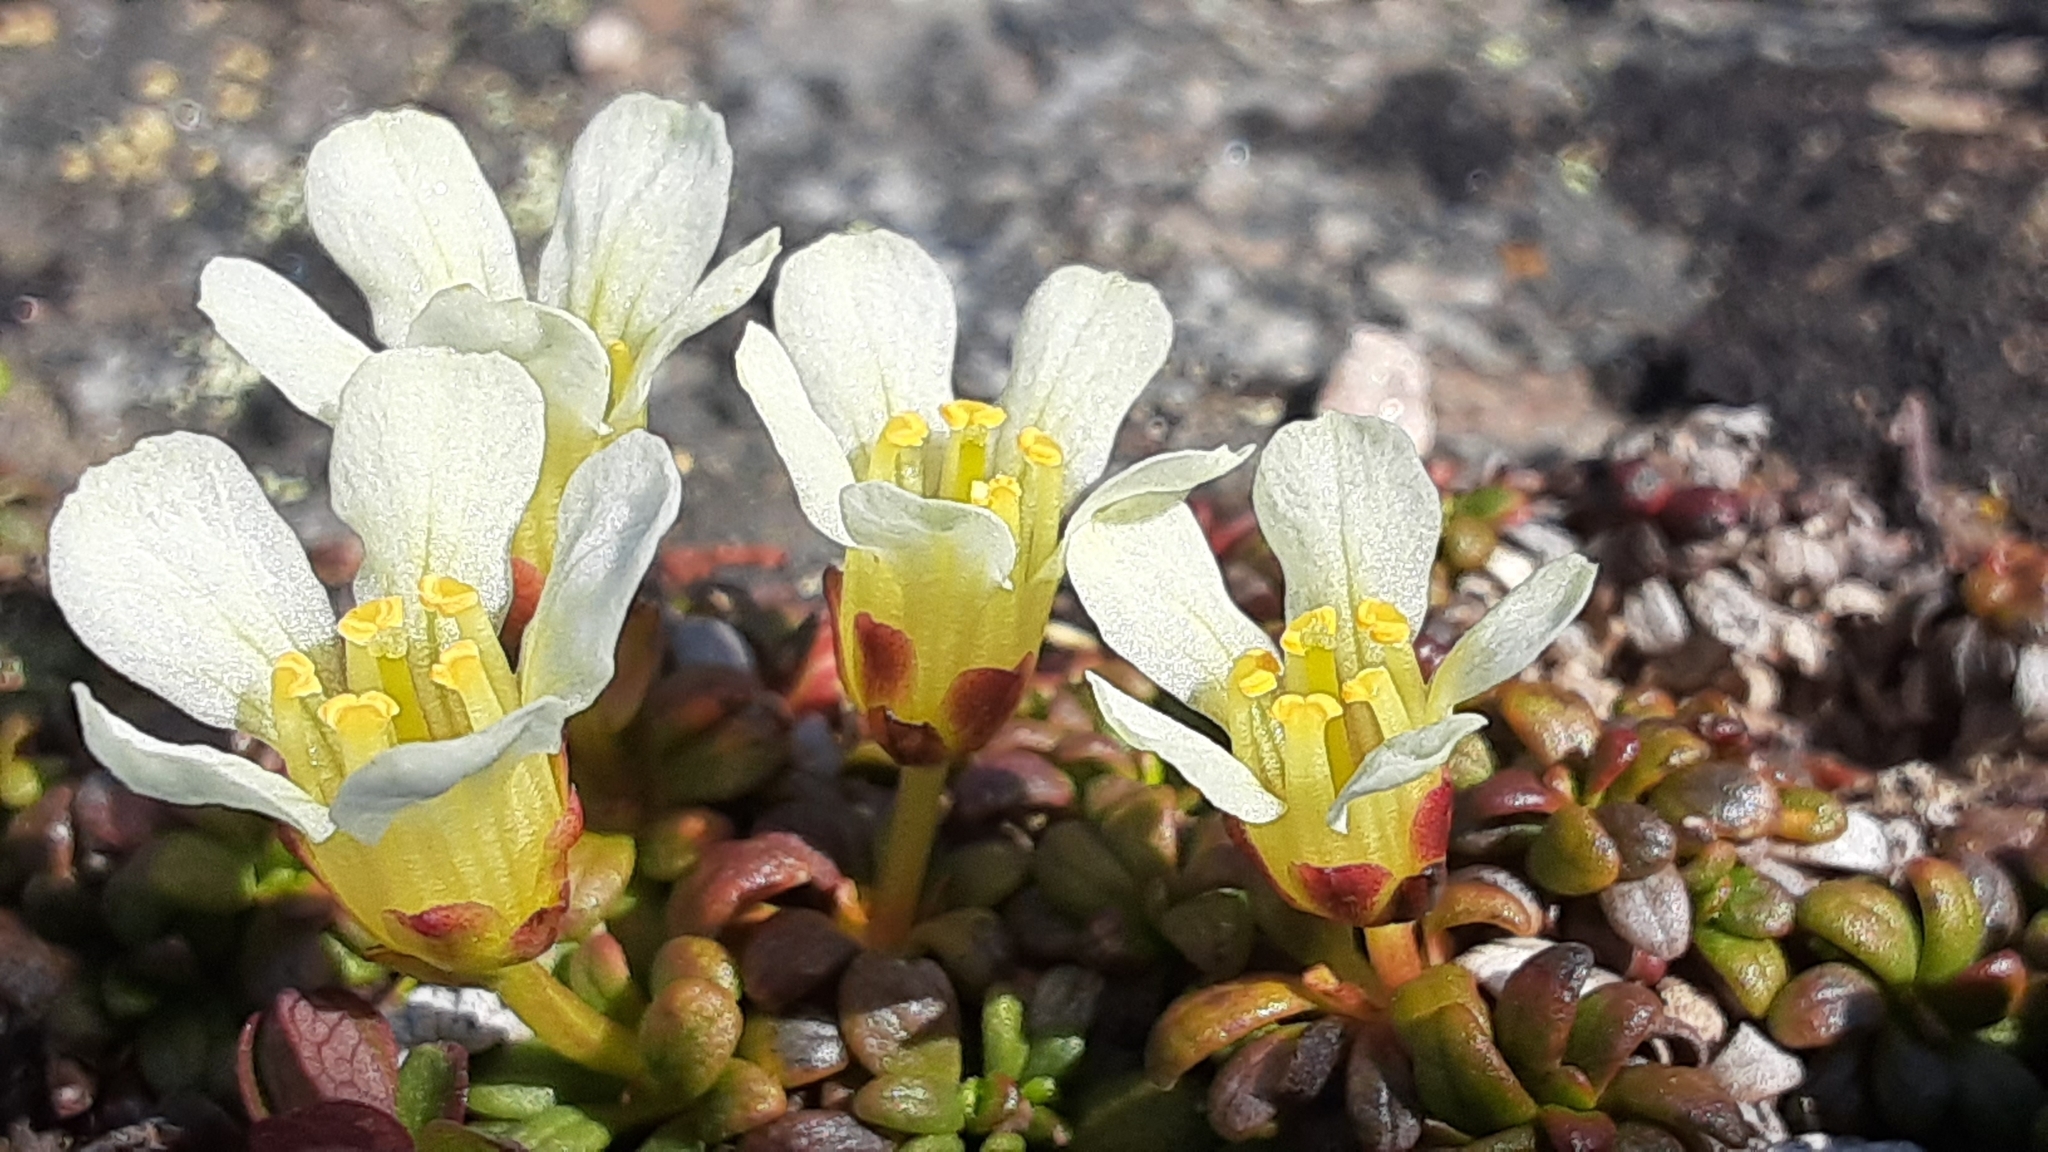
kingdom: Plantae
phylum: Tracheophyta
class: Magnoliopsida
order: Ericales
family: Diapensiaceae
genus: Diapensia
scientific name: Diapensia obovata
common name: Alaska diapensia
